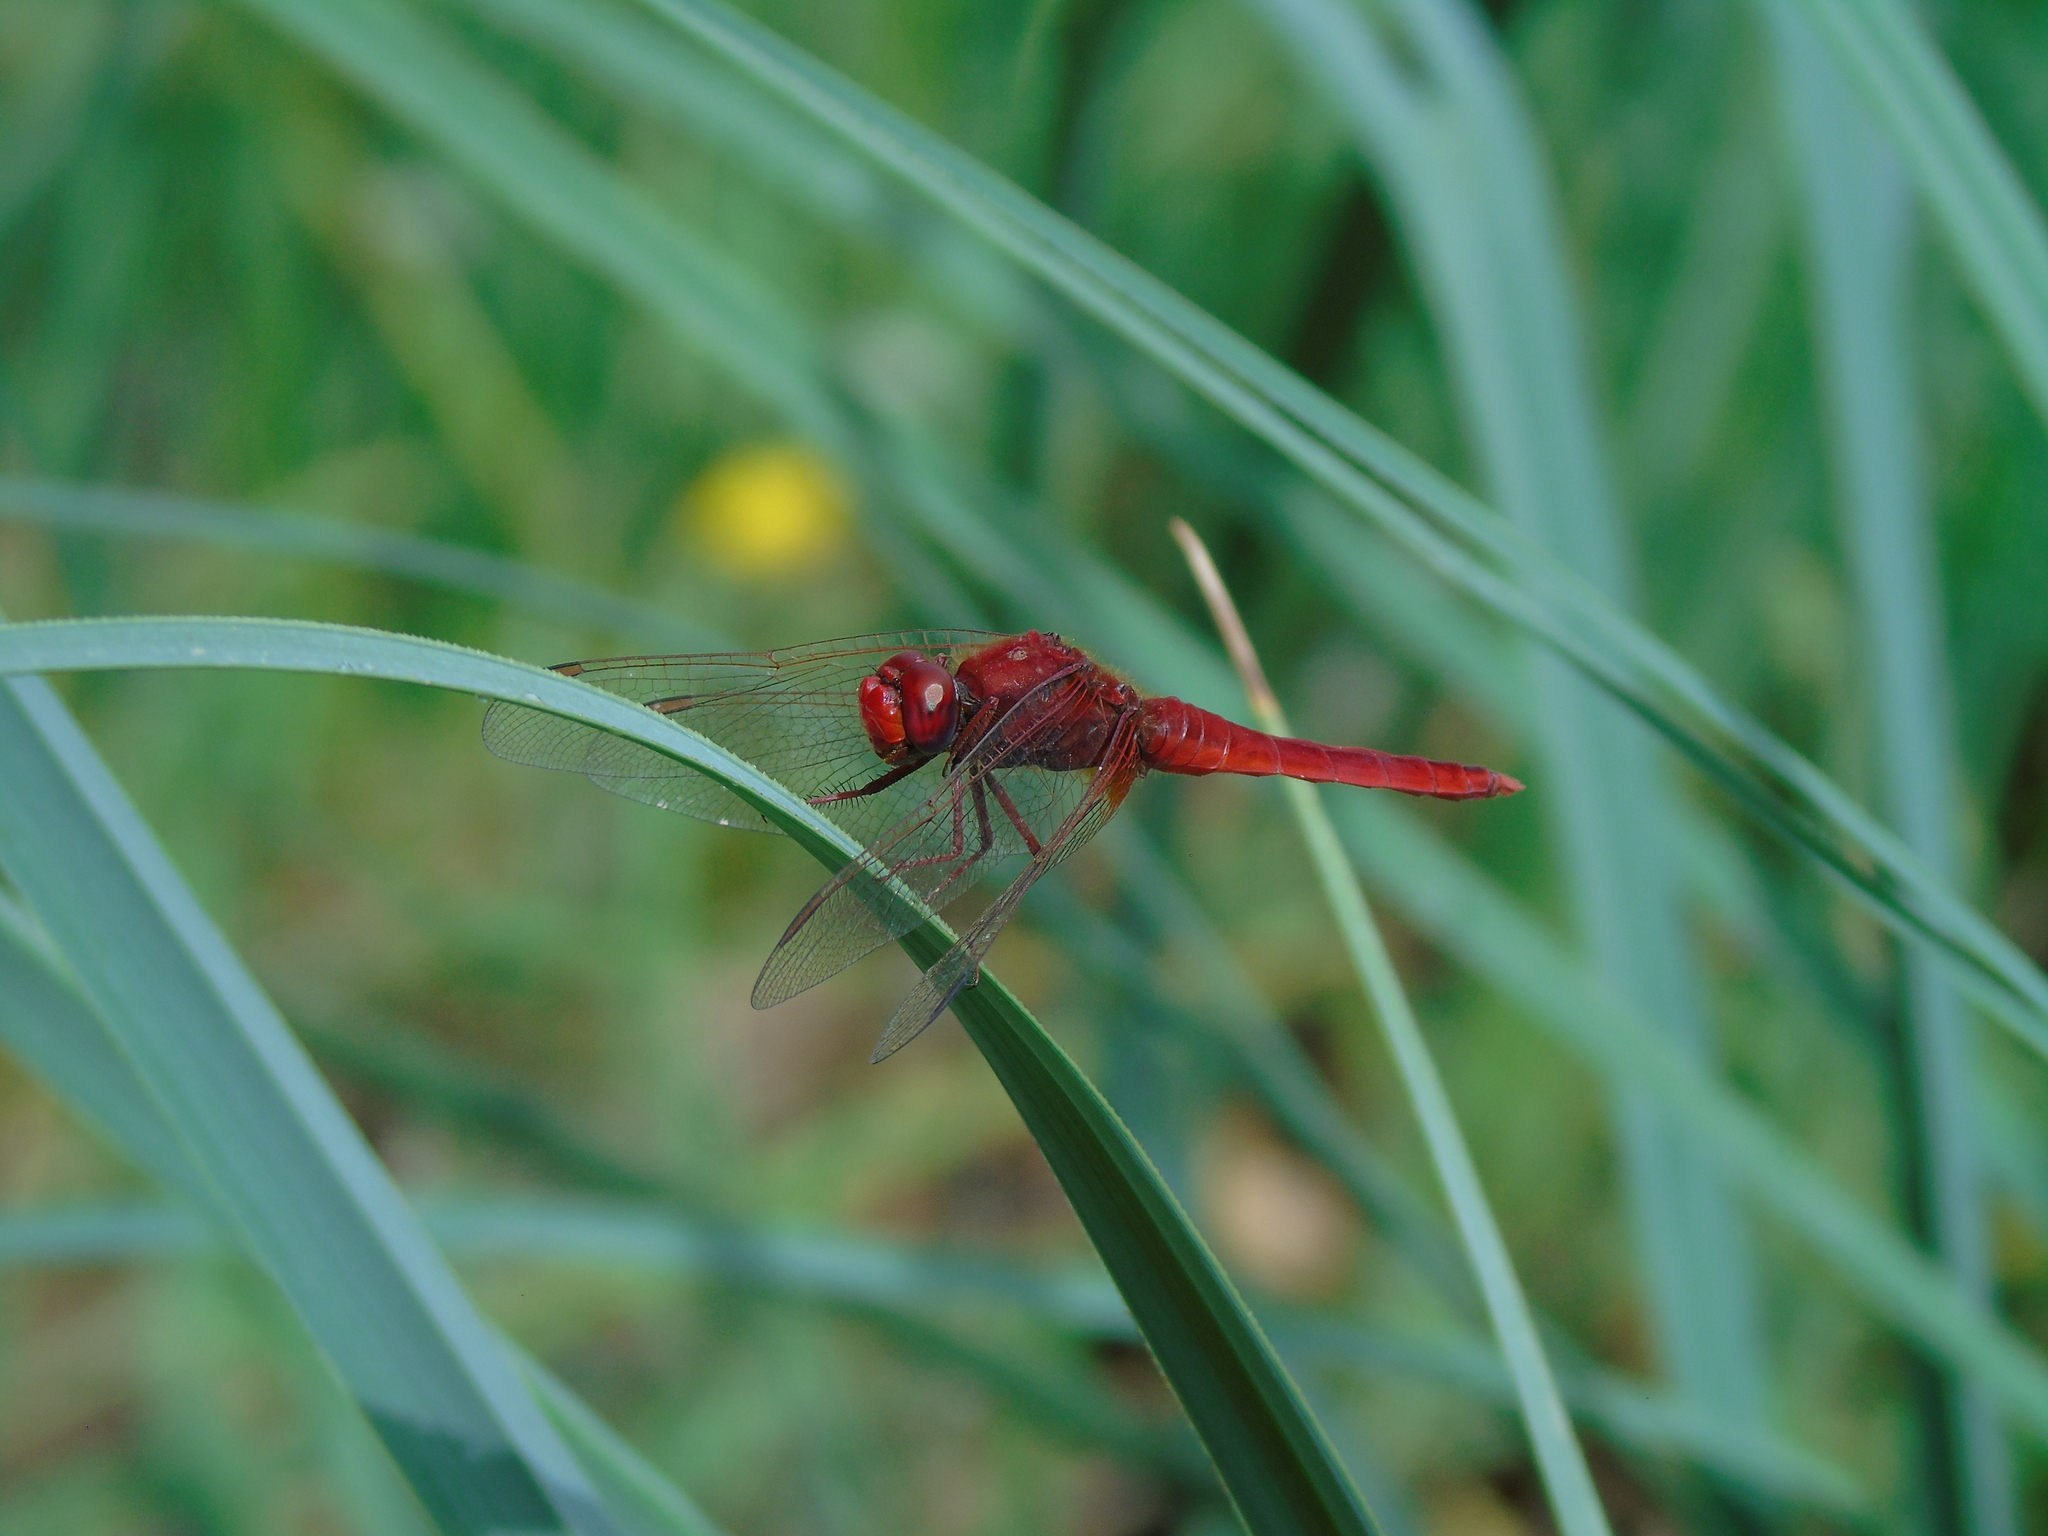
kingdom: Animalia
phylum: Arthropoda
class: Insecta
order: Odonata
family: Libellulidae
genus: Crocothemis
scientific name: Crocothemis erythraea
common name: Scarlet dragonfly
